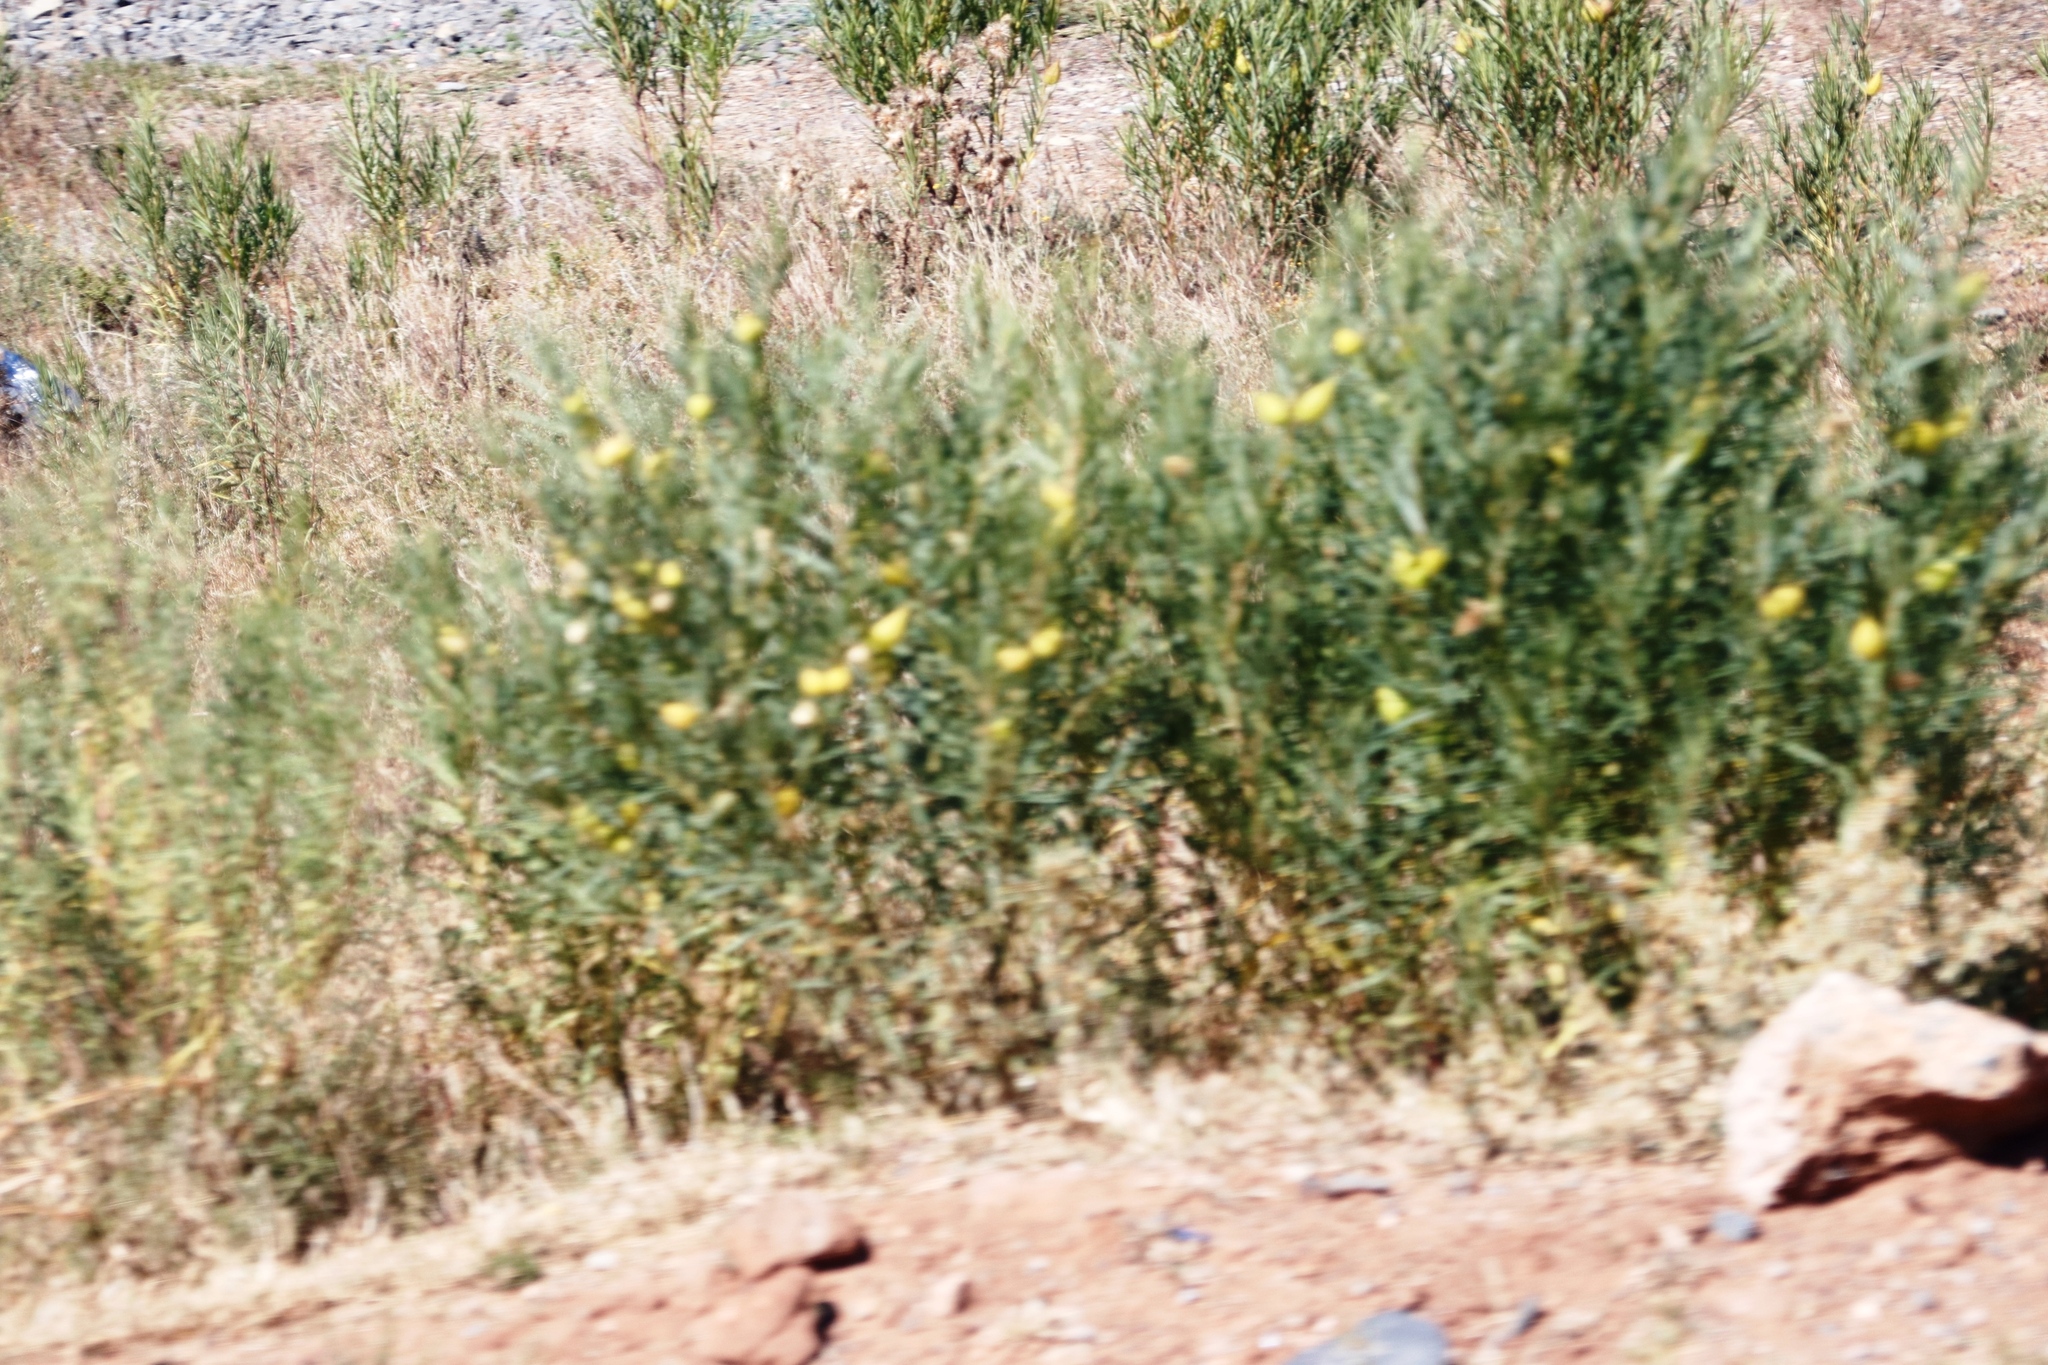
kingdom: Plantae
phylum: Tracheophyta
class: Magnoliopsida
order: Gentianales
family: Apocynaceae
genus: Gomphocarpus
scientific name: Gomphocarpus fruticosus
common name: Milkweed
